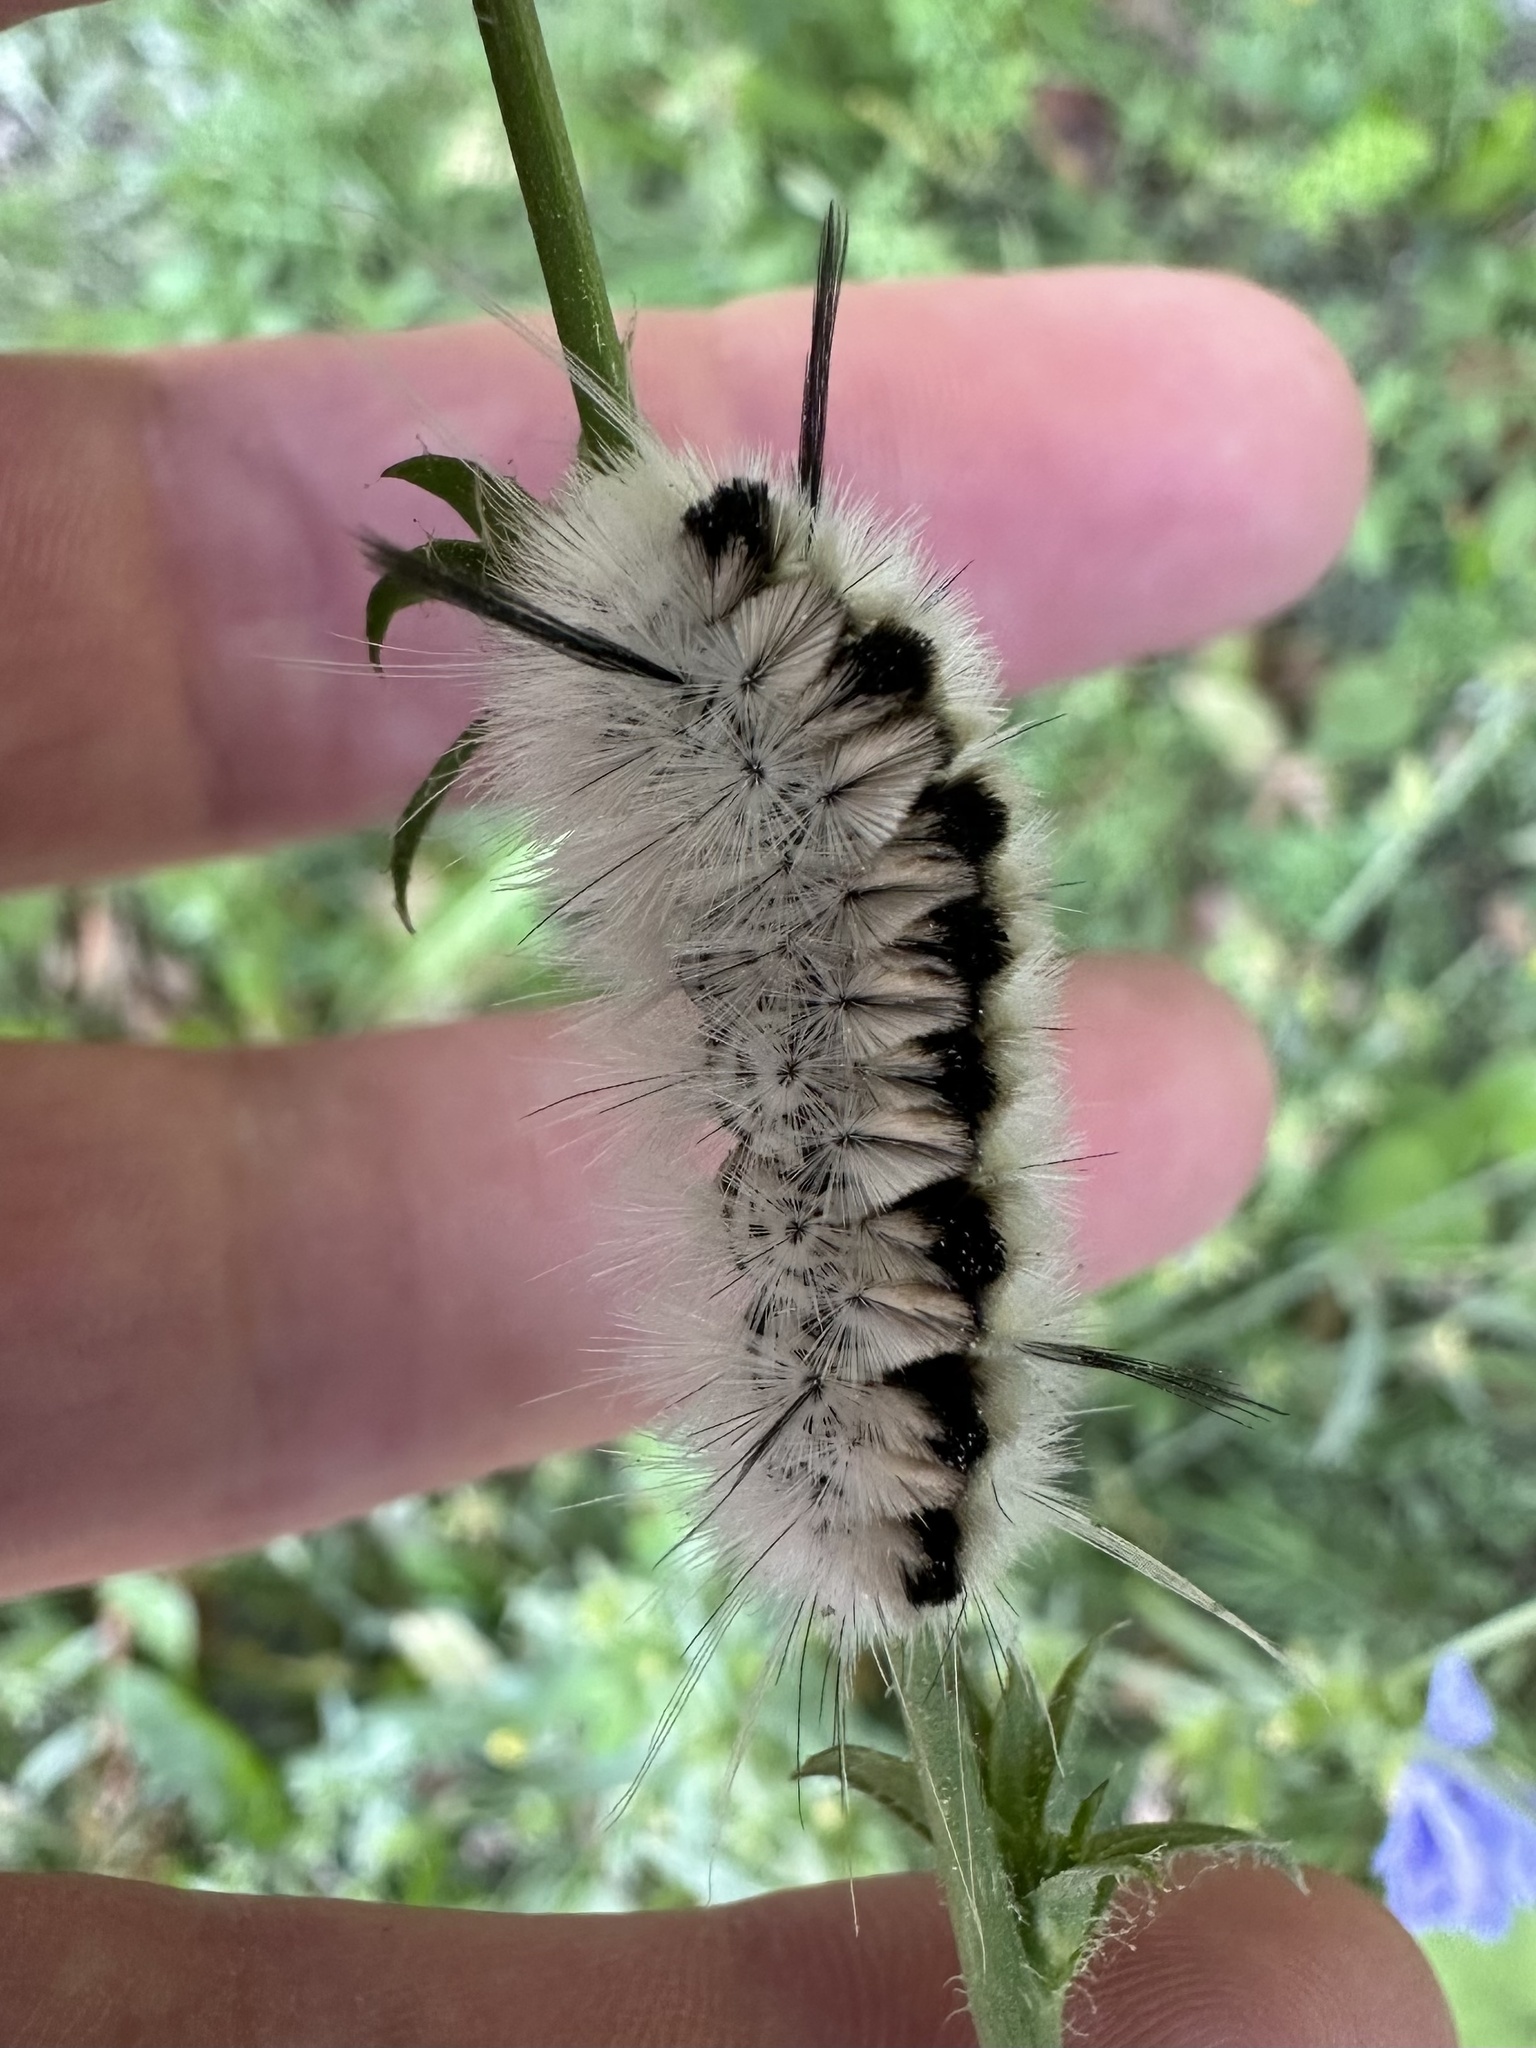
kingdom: Animalia
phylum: Arthropoda
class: Insecta
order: Lepidoptera
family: Erebidae
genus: Lophocampa
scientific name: Lophocampa caryae
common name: Hickory tussock moth
